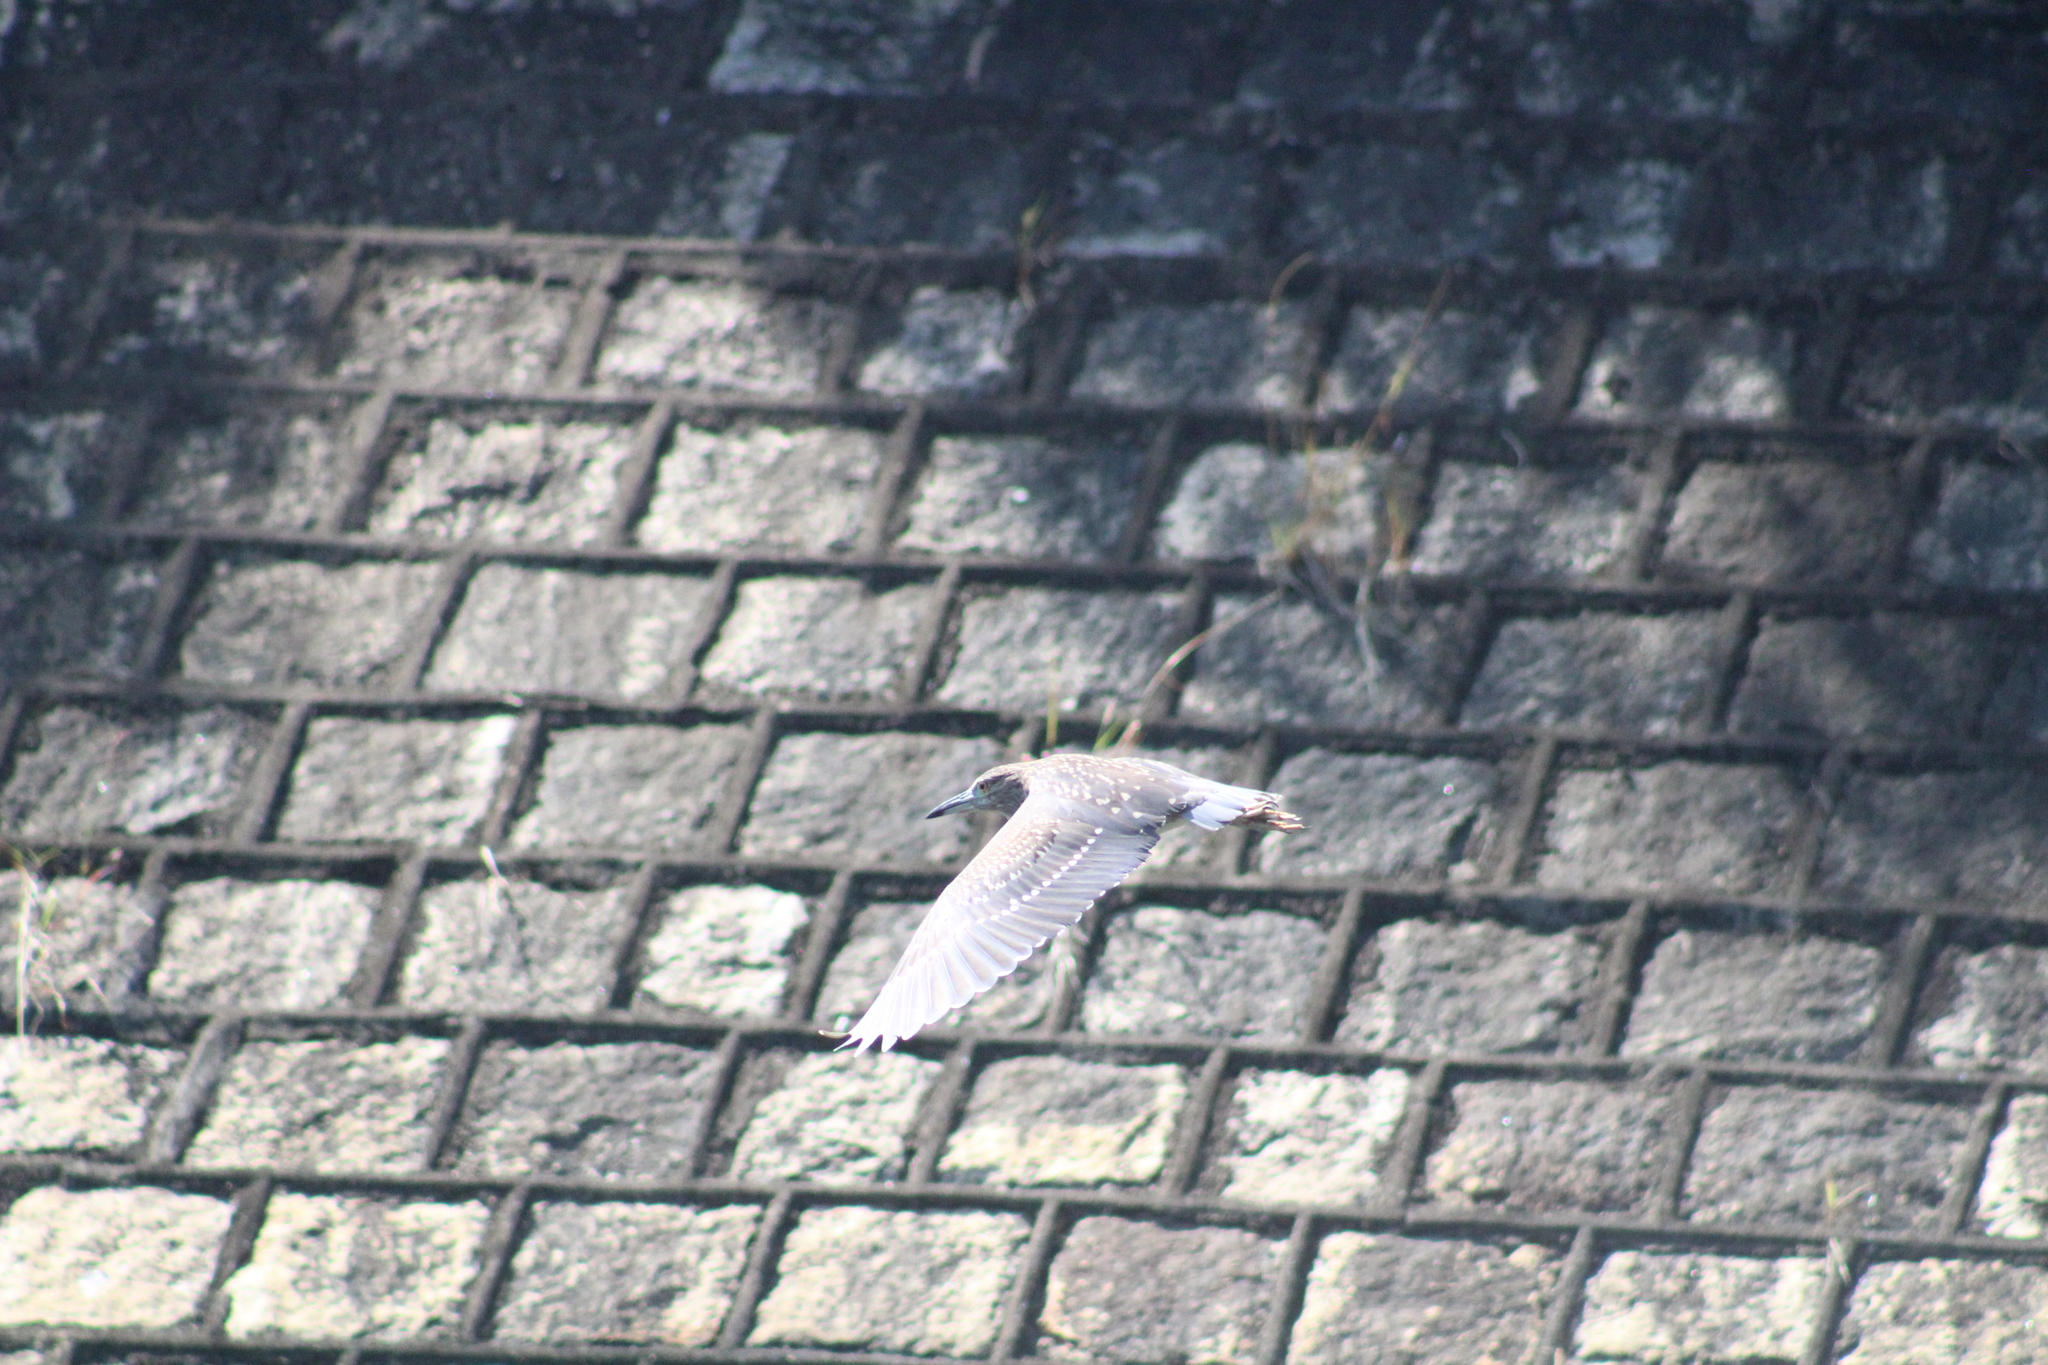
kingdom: Animalia
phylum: Chordata
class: Aves
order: Pelecaniformes
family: Ardeidae
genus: Nycticorax
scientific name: Nycticorax nycticorax
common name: Black-crowned night heron
